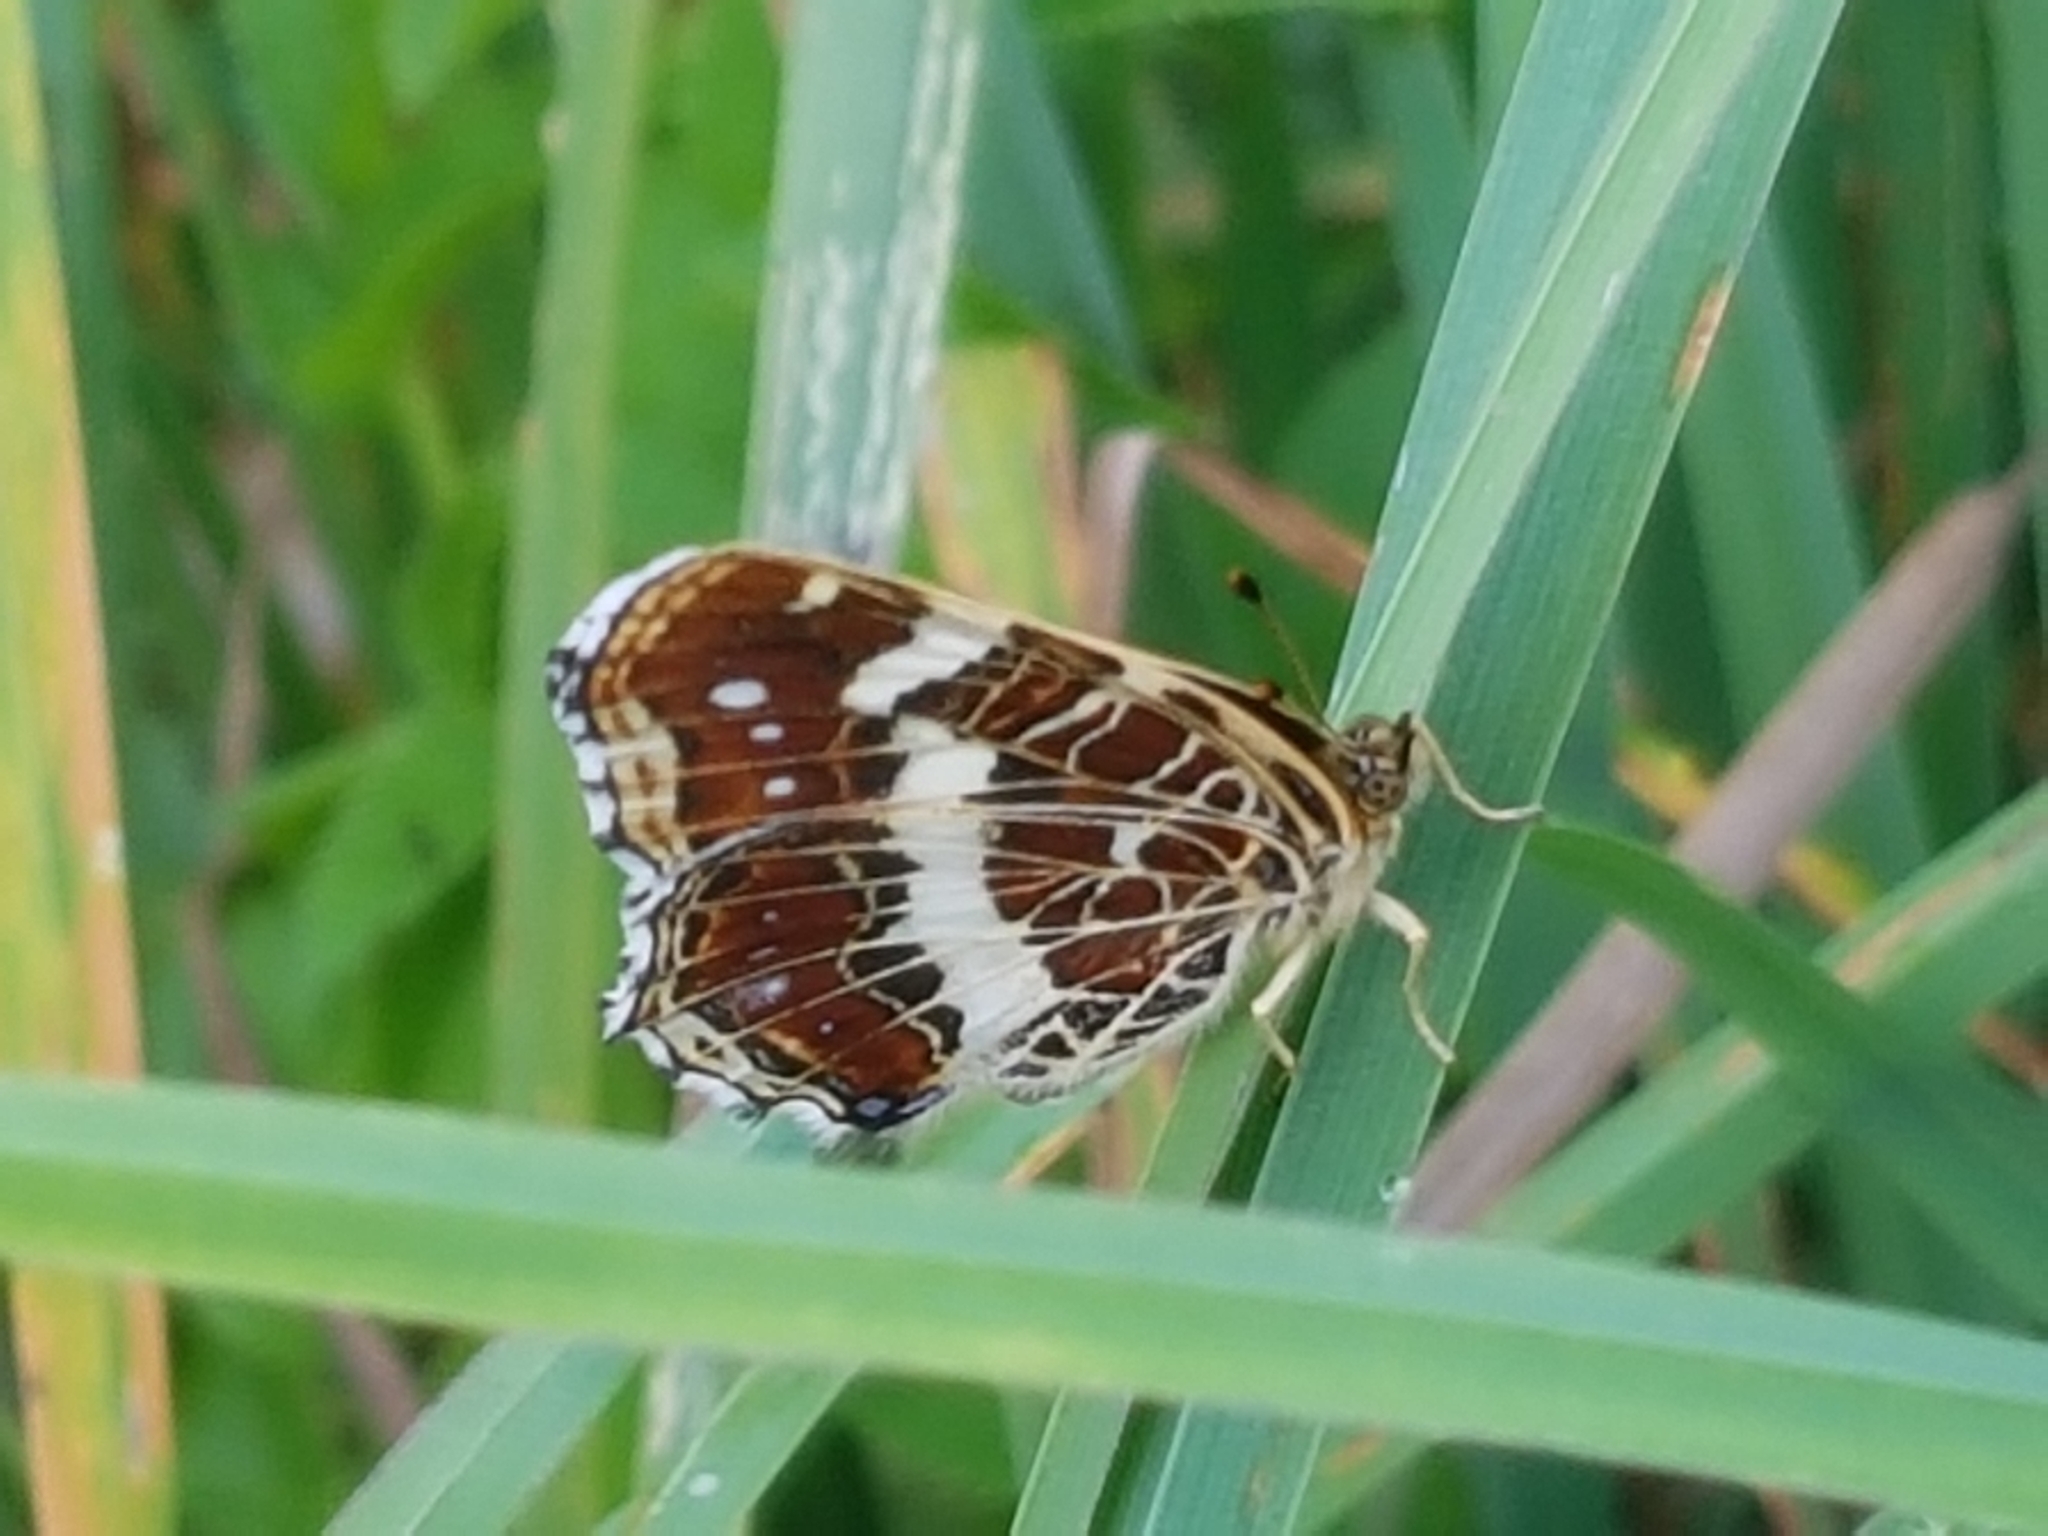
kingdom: Animalia
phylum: Arthropoda
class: Insecta
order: Lepidoptera
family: Nymphalidae
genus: Araschnia
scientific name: Araschnia levana
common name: Map butterfly
